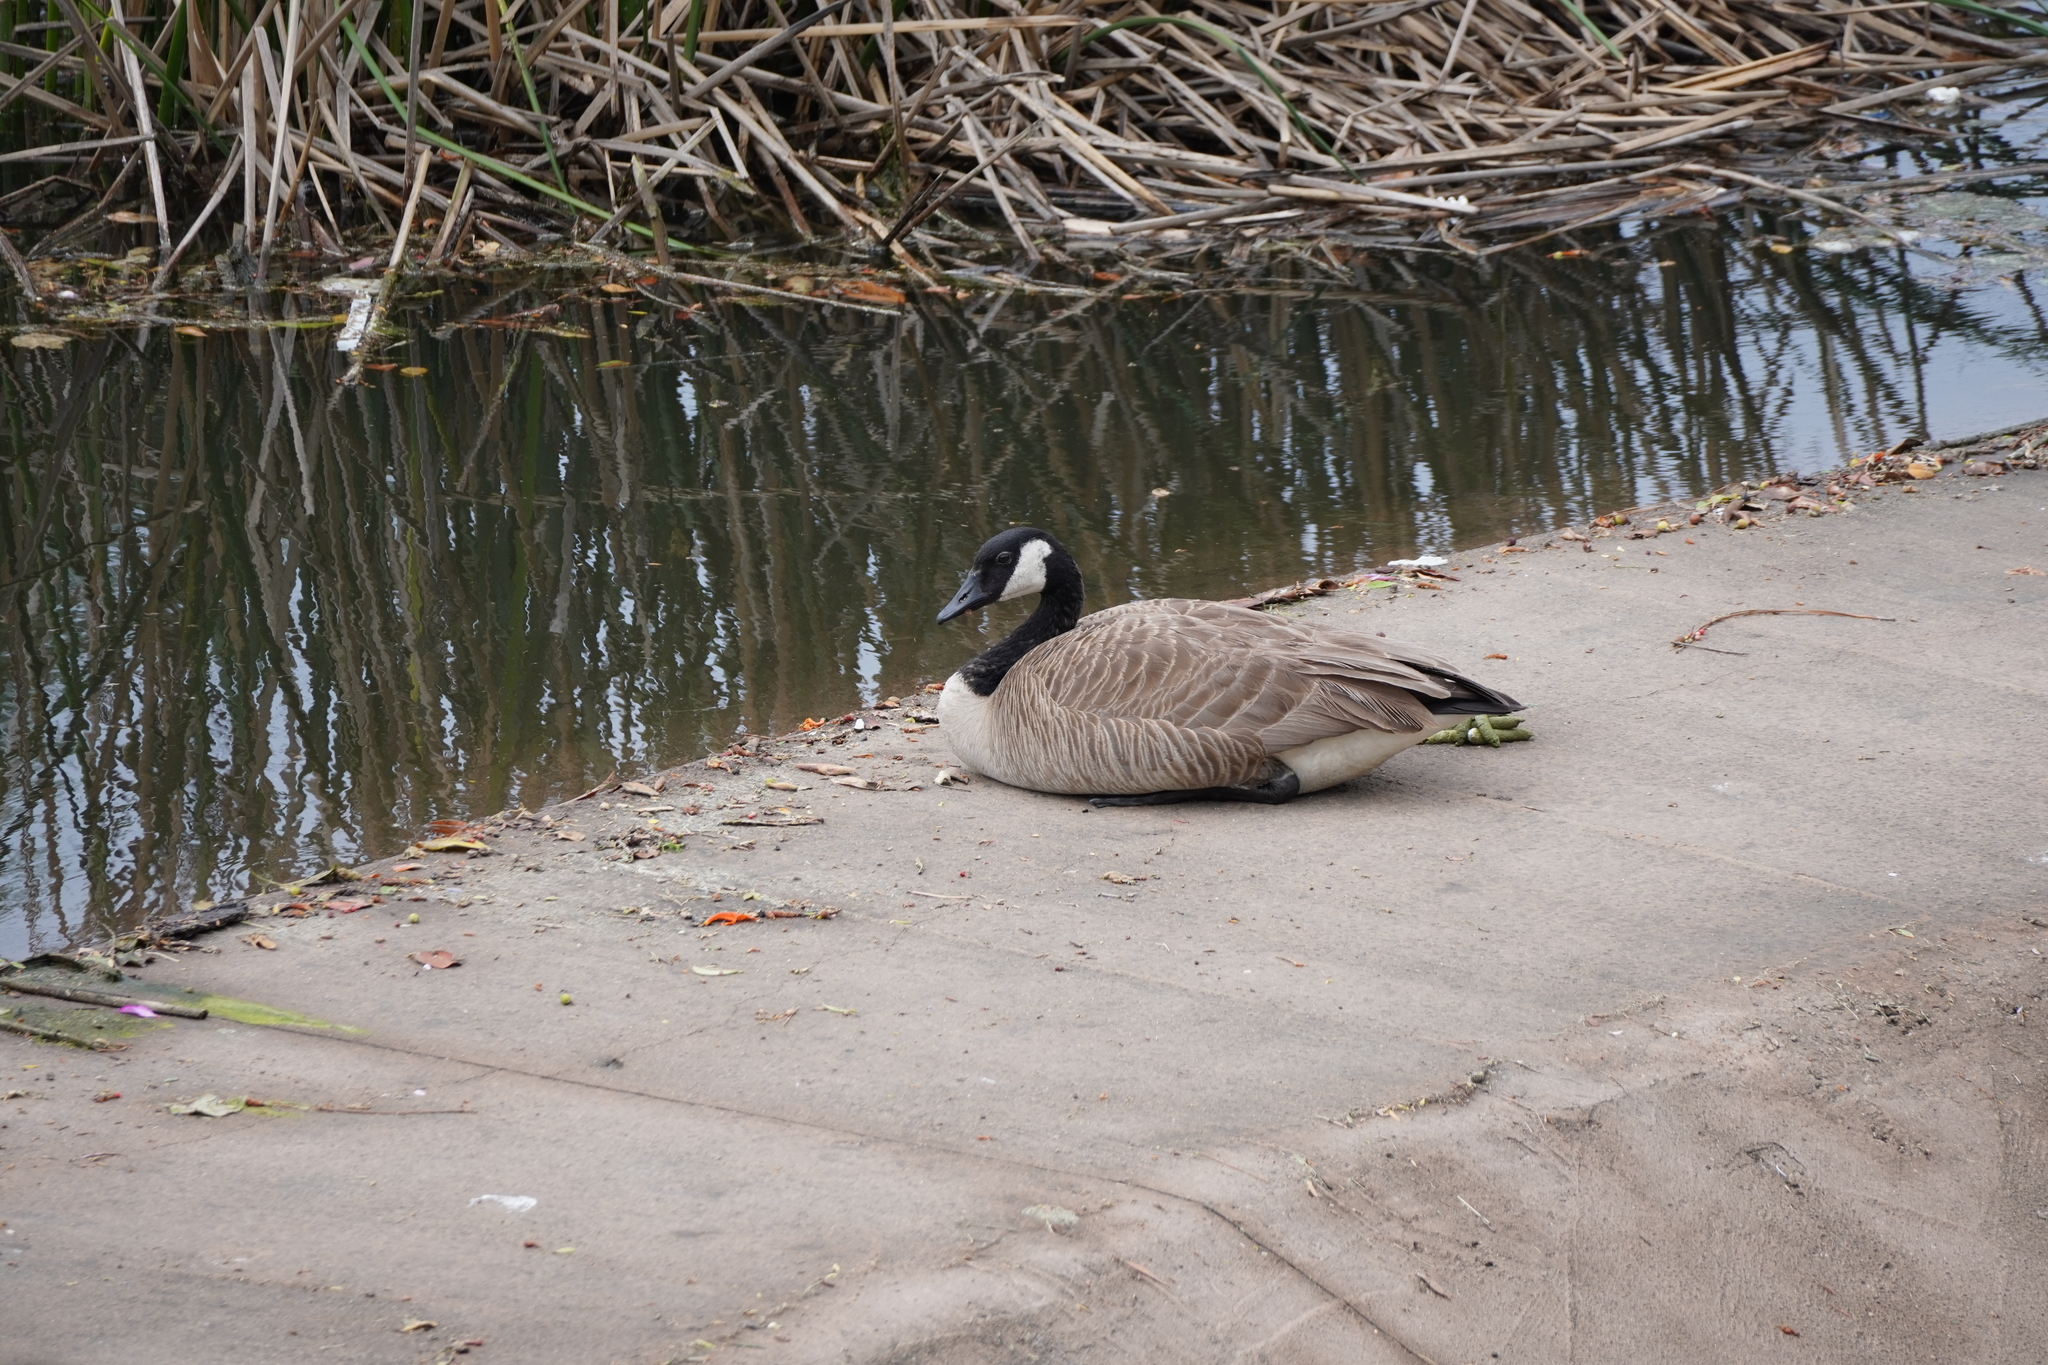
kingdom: Animalia
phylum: Chordata
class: Aves
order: Anseriformes
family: Anatidae
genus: Branta
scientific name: Branta canadensis
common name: Canada goose
